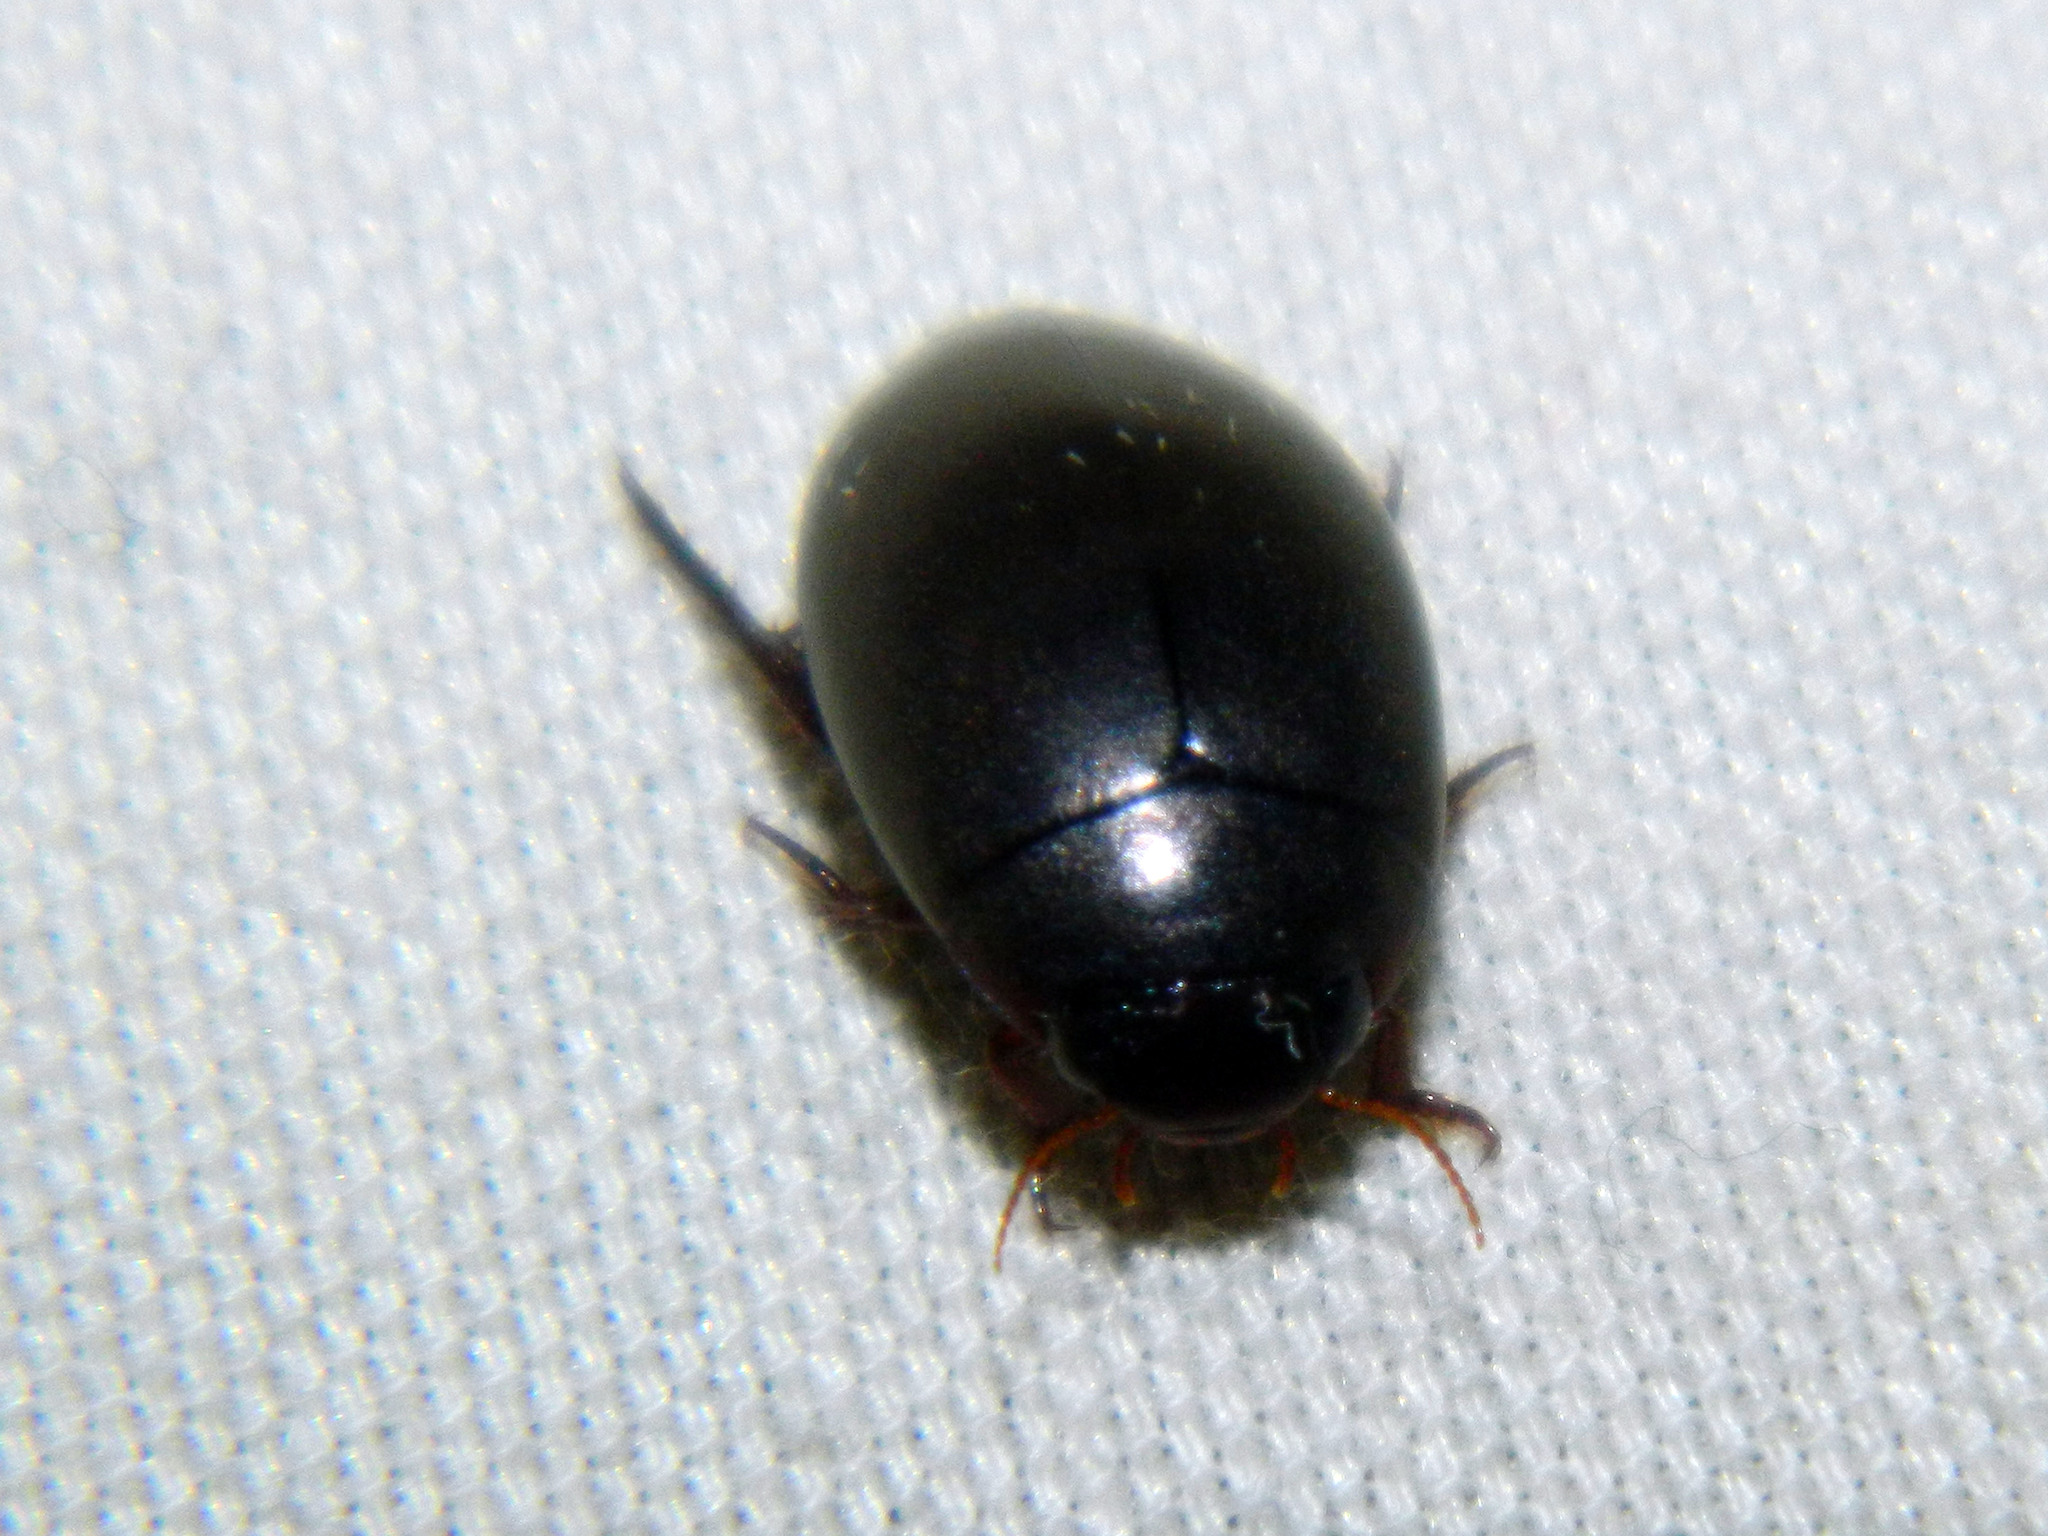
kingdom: Animalia
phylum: Arthropoda
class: Insecta
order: Coleoptera
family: Dytiscidae
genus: Ilybius
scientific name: Ilybius
